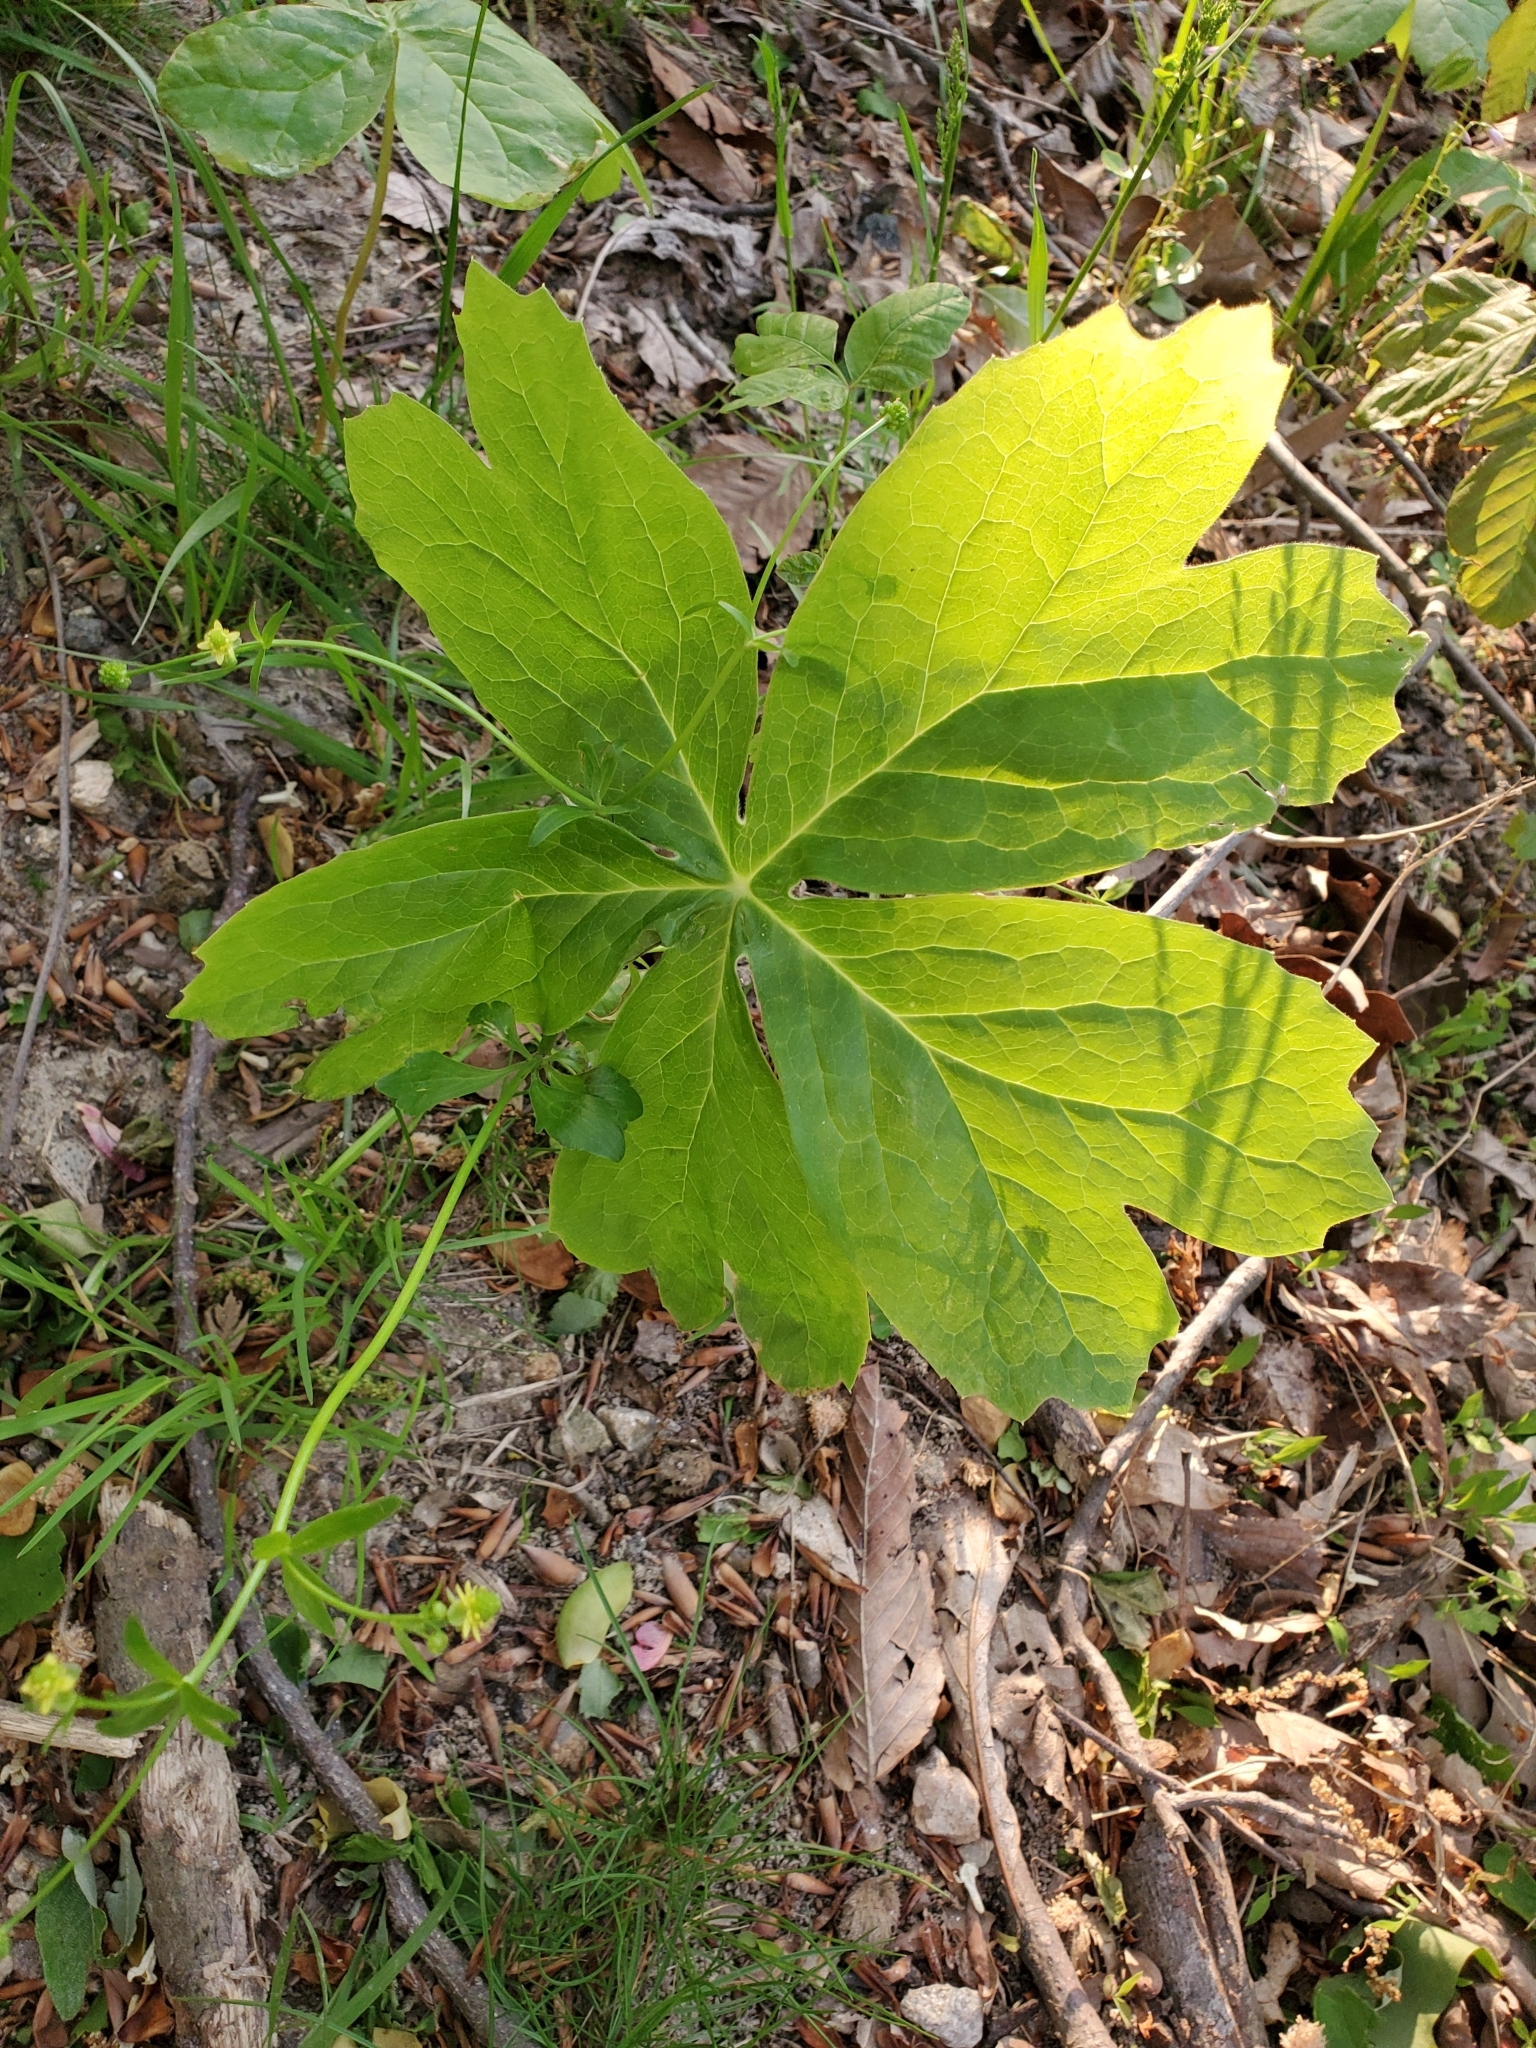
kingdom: Plantae
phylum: Tracheophyta
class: Magnoliopsida
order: Ranunculales
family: Berberidaceae
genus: Podophyllum
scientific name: Podophyllum peltatum
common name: Wild mandrake
